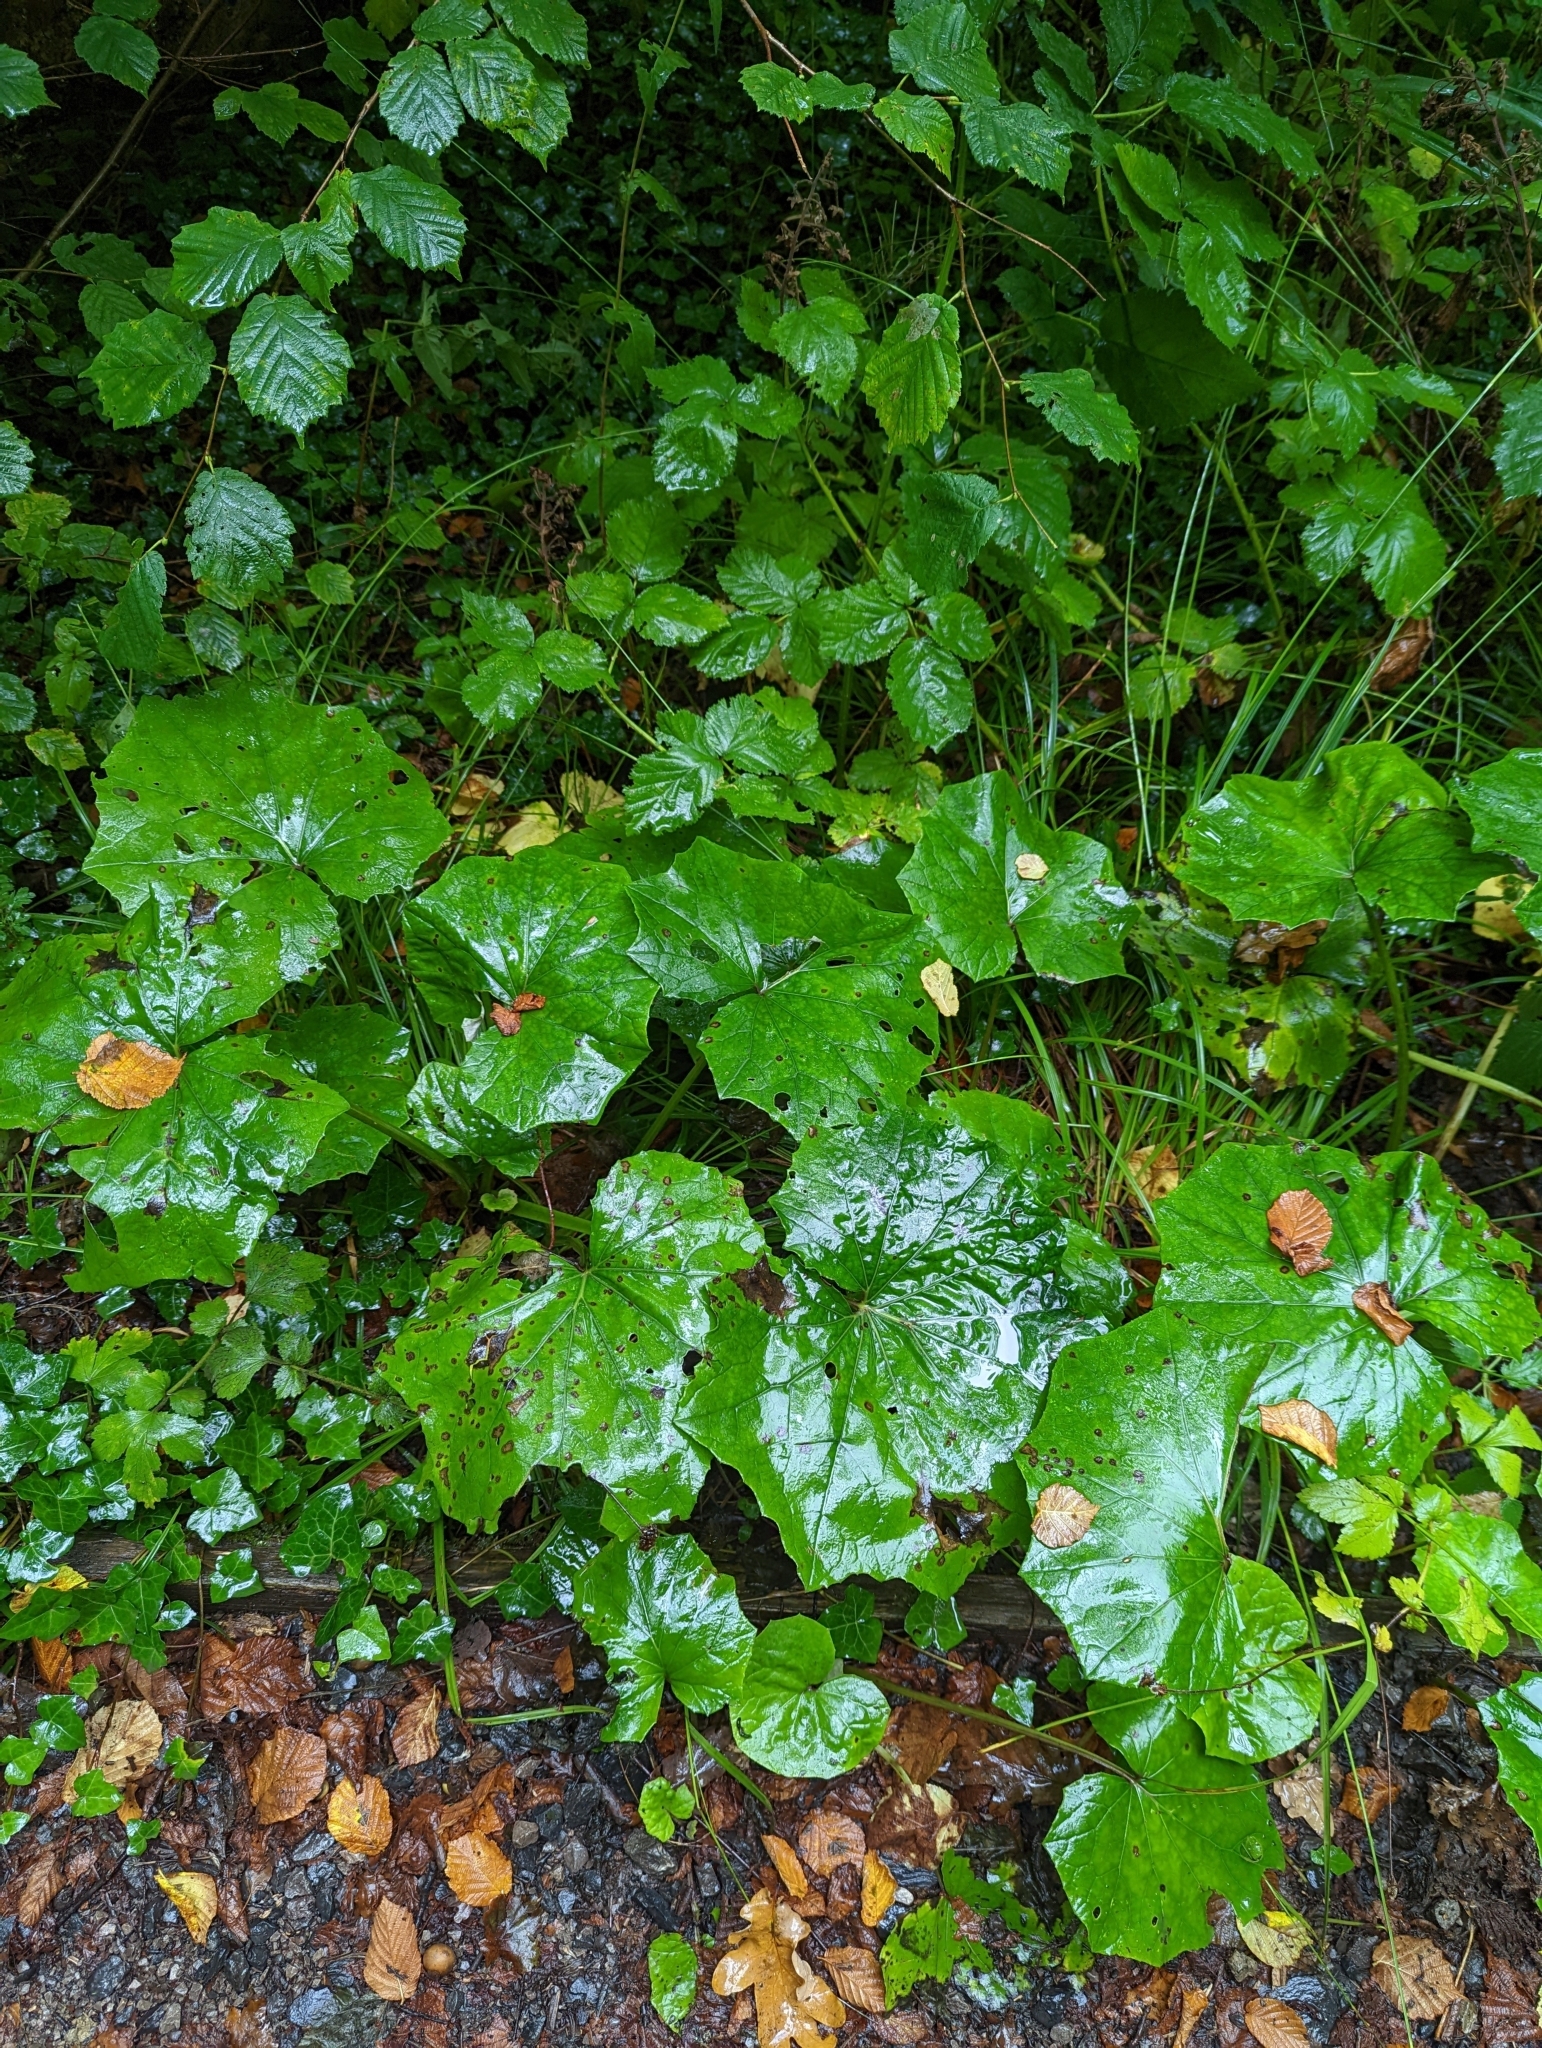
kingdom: Plantae
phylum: Tracheophyta
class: Magnoliopsida
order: Asterales
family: Asteraceae
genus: Tussilago
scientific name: Tussilago farfara
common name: Coltsfoot
